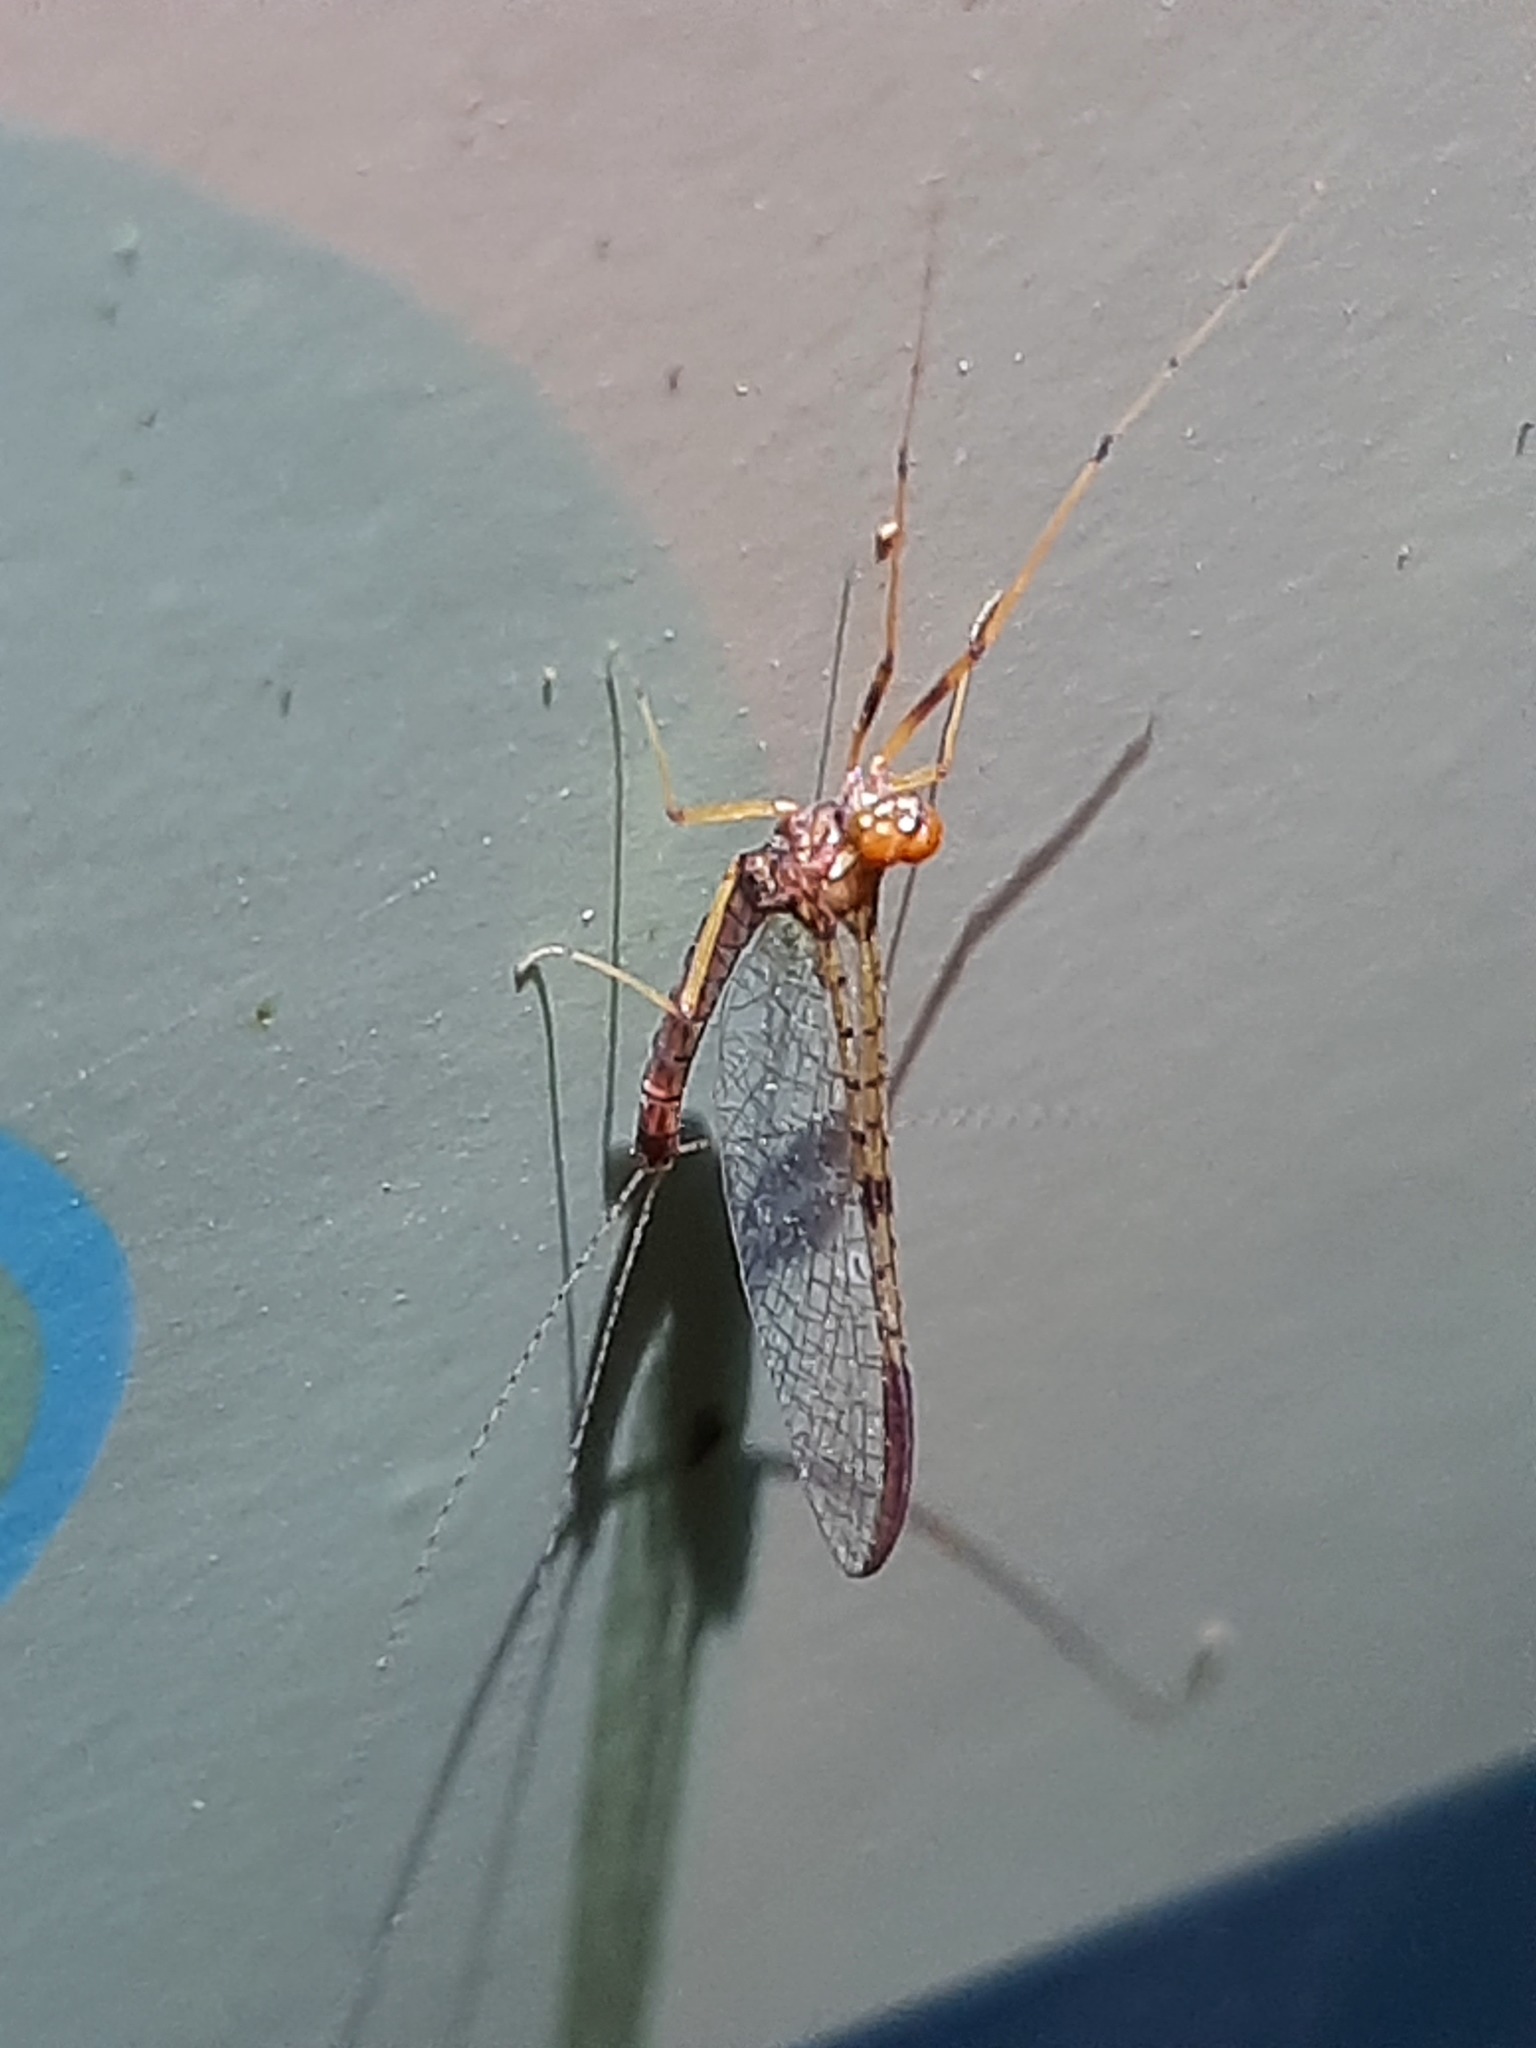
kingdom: Animalia
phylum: Arthropoda
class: Insecta
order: Ephemeroptera
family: Leptophlebiidae
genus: Zephlebia
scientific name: Zephlebia borealis
